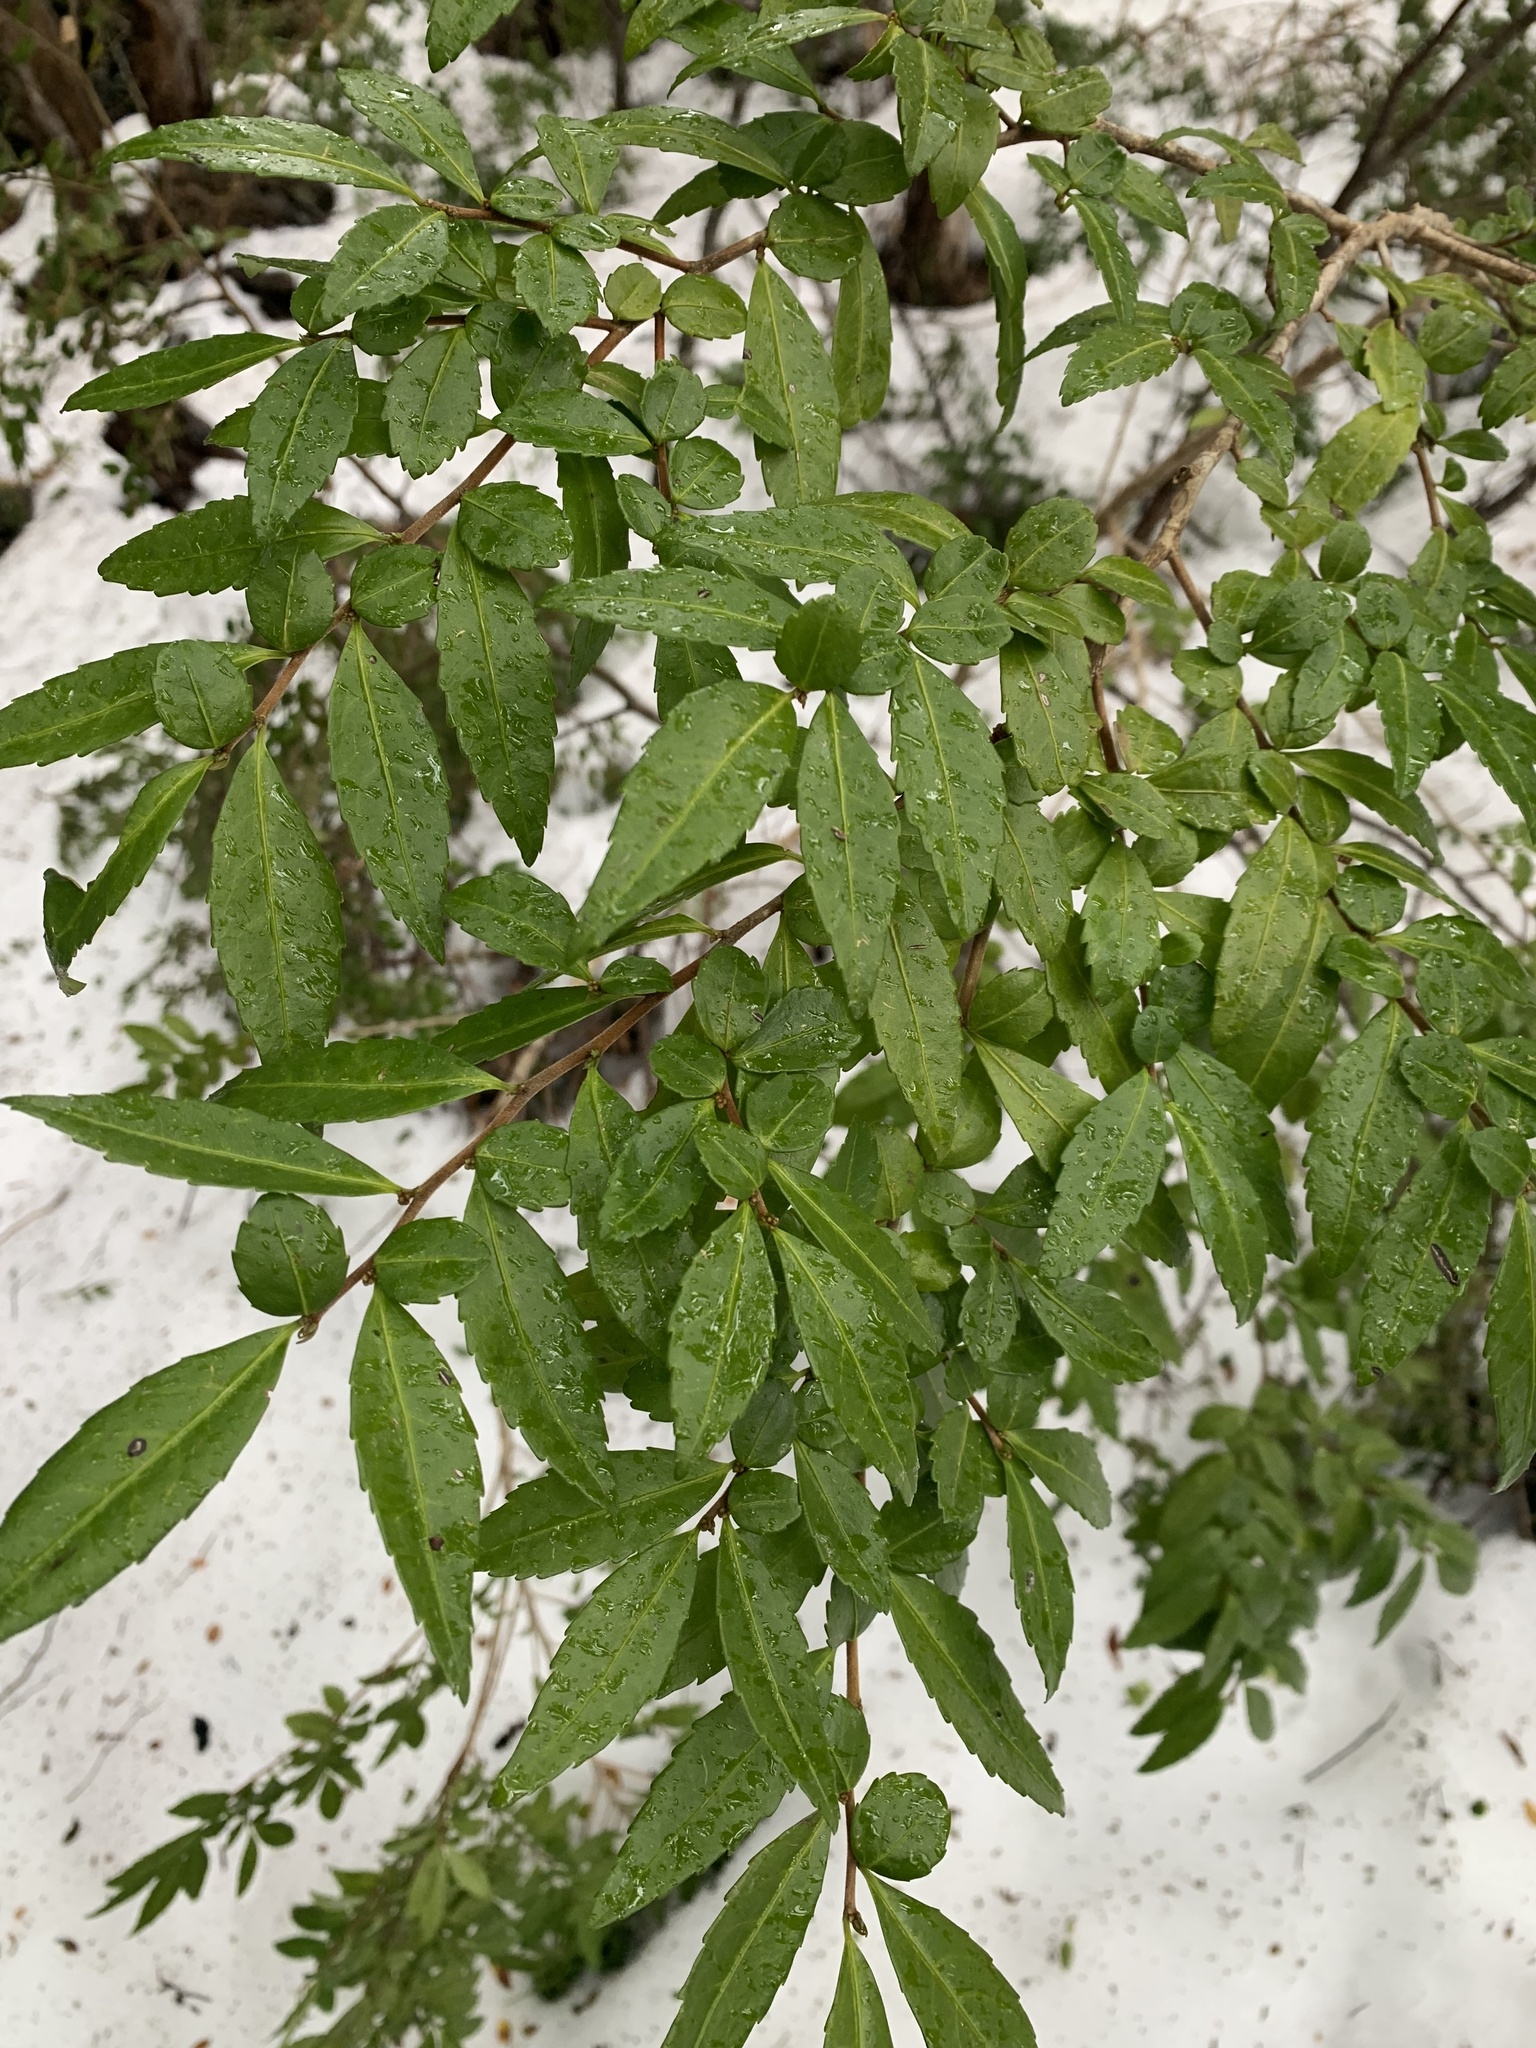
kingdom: Plantae
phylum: Tracheophyta
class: Magnoliopsida
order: Malpighiales
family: Salicaceae
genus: Azara
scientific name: Azara lanceolata
